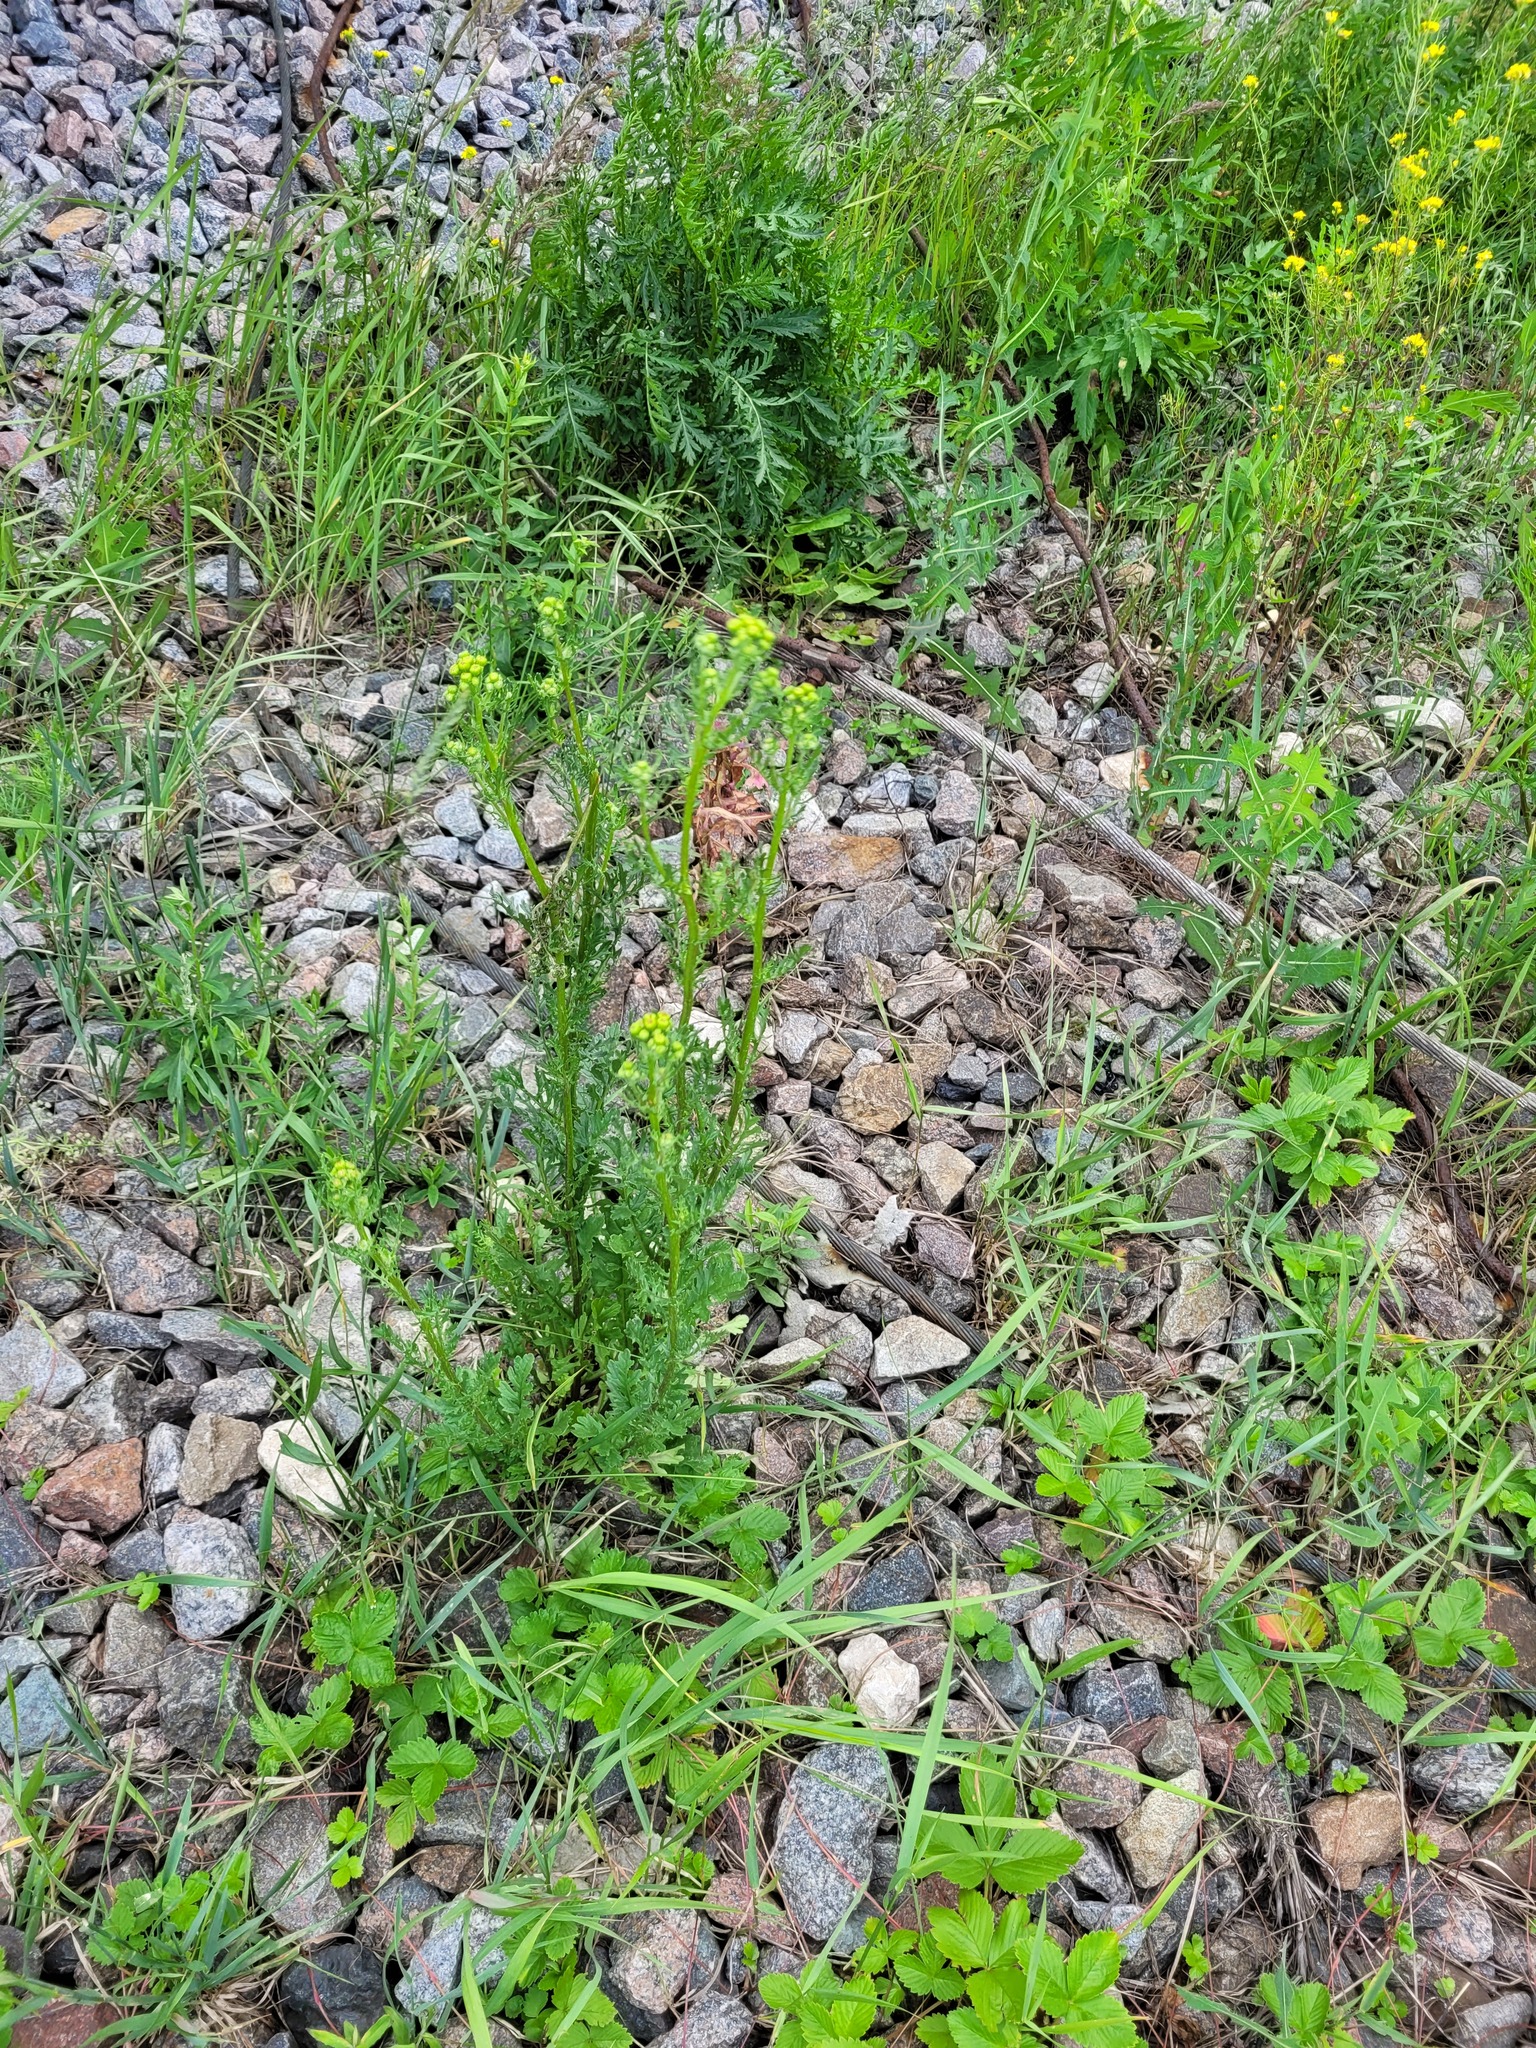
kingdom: Plantae
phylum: Tracheophyta
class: Magnoliopsida
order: Asterales
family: Asteraceae
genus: Jacobaea
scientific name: Jacobaea vulgaris
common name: Stinking willie
